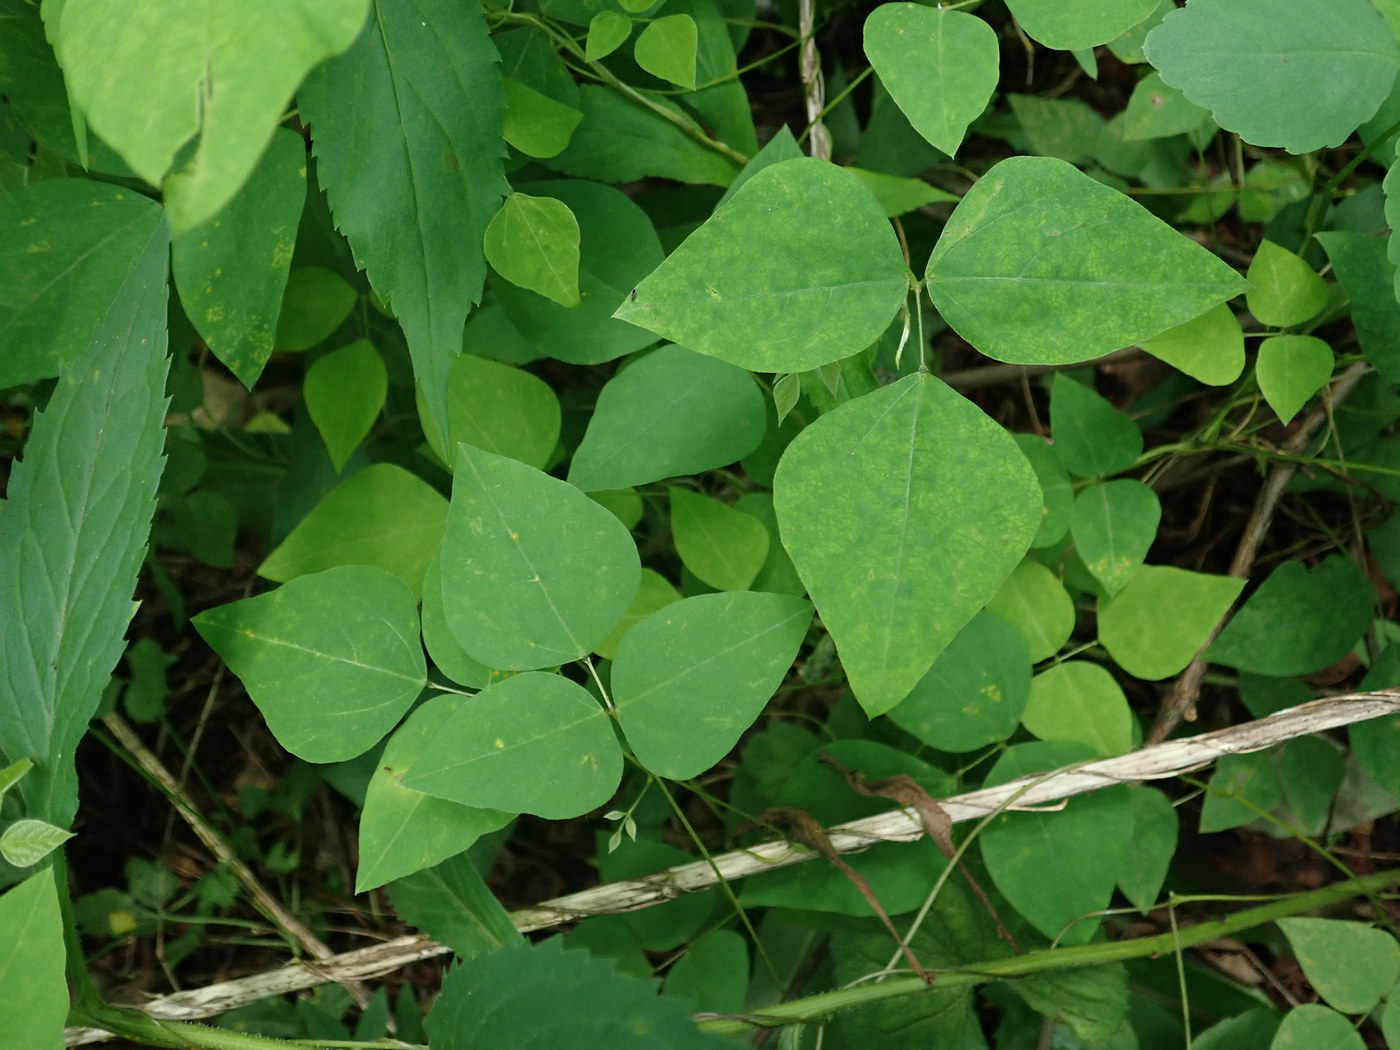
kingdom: Animalia
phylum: Arthropoda
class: Insecta
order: Lepidoptera
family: Gracillariidae
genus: Leucanthiza
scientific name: Leucanthiza amphicarpeaefoliella
